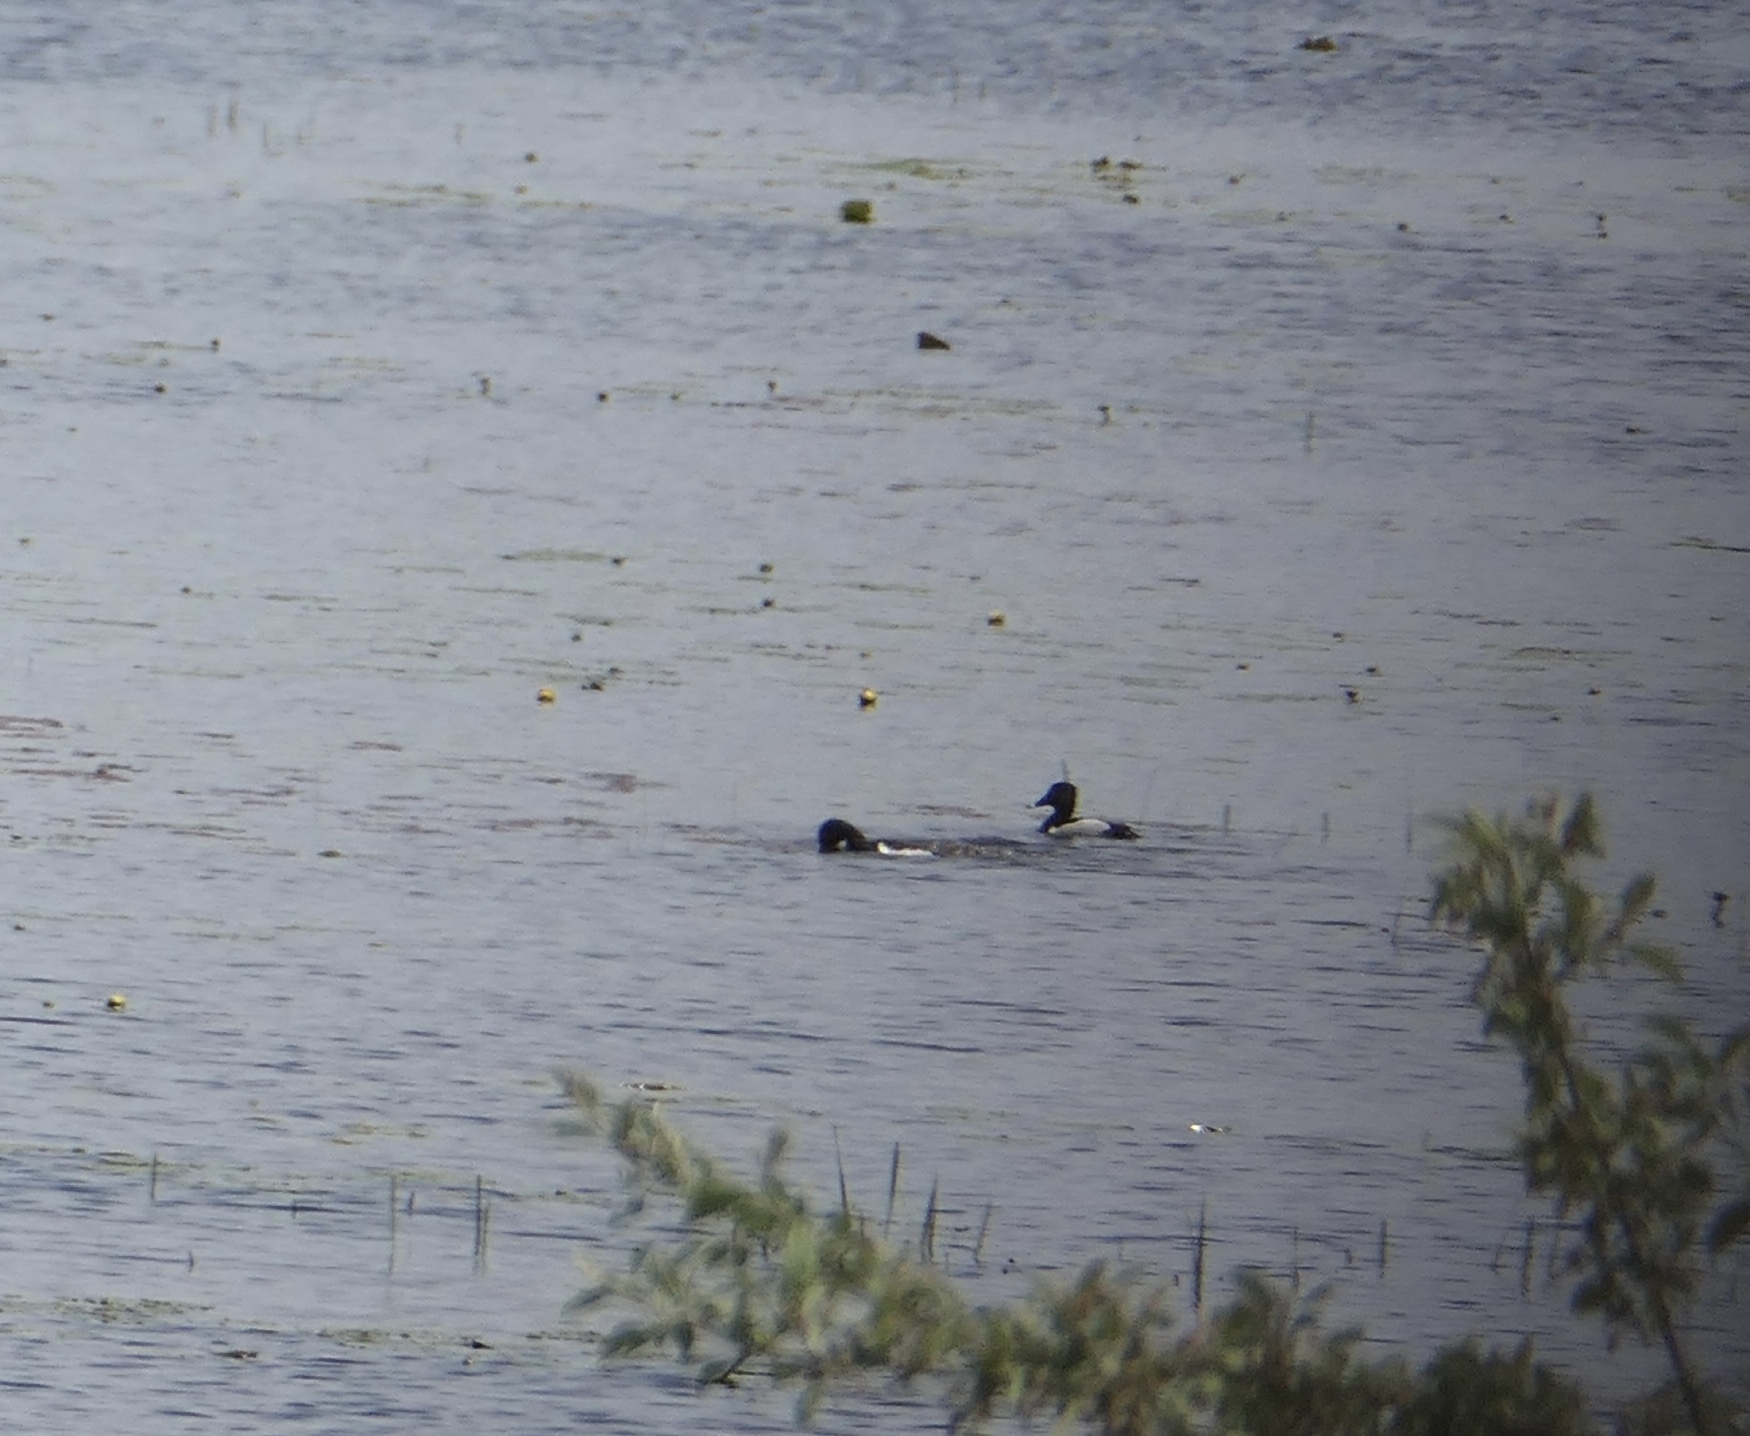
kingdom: Animalia
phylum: Chordata
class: Aves
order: Anseriformes
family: Anatidae
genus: Aythya
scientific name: Aythya collaris
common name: Ring-necked duck
